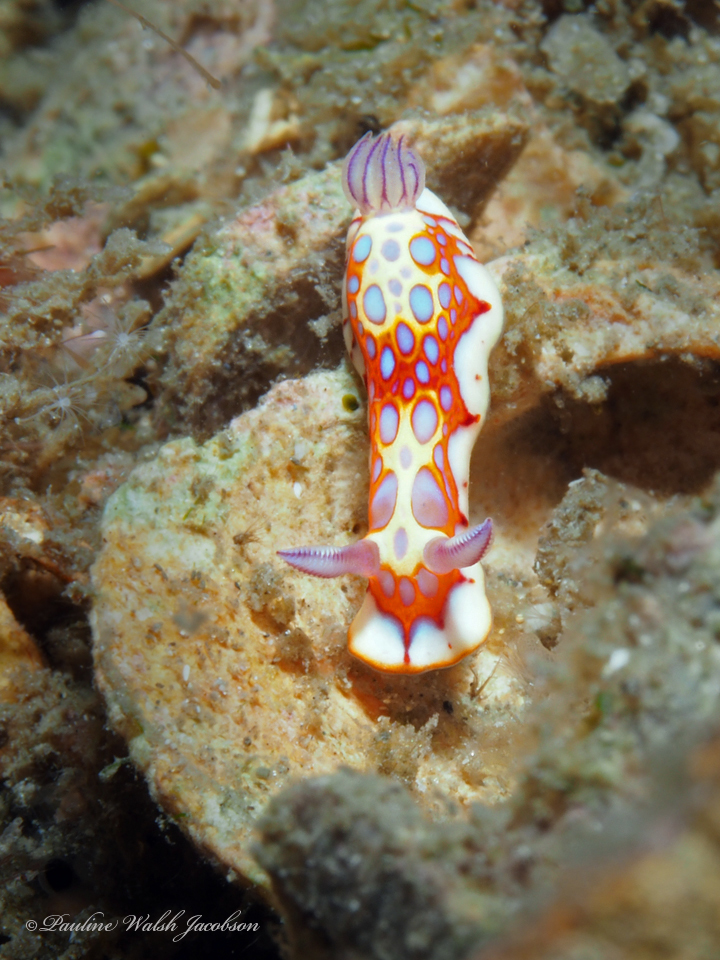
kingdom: Animalia
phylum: Mollusca
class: Gastropoda
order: Nudibranchia
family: Chromodorididae
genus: Felimida
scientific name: Felimida binza
